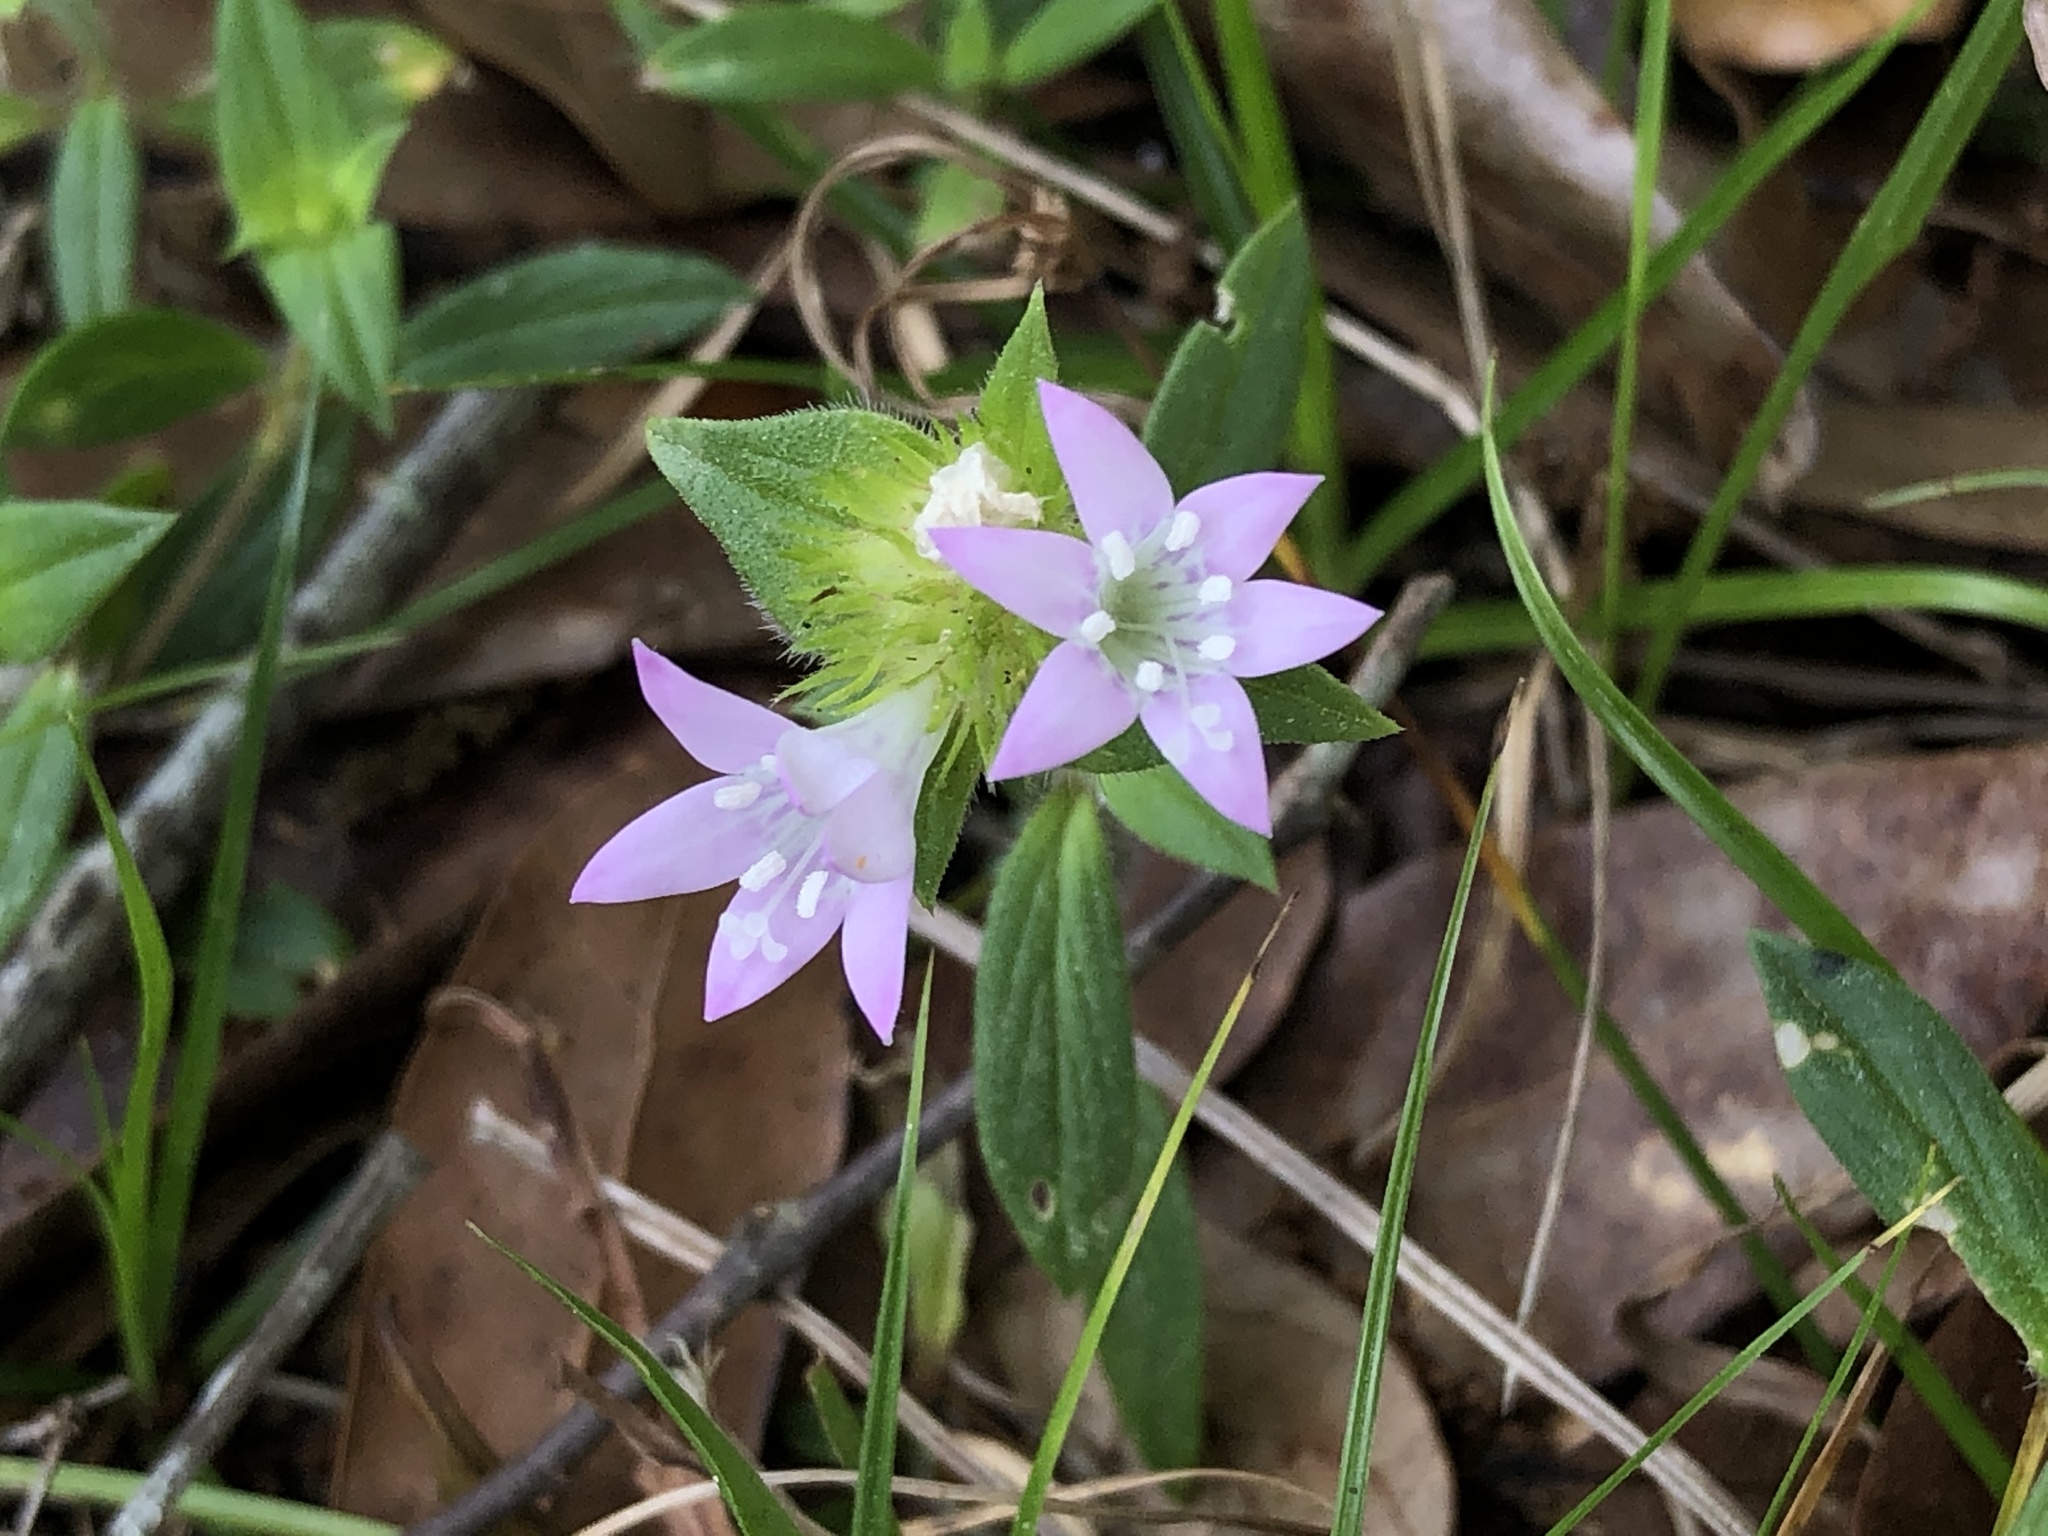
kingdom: Plantae
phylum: Tracheophyta
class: Magnoliopsida
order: Gentianales
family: Rubiaceae
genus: Richardia
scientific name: Richardia grandiflora
